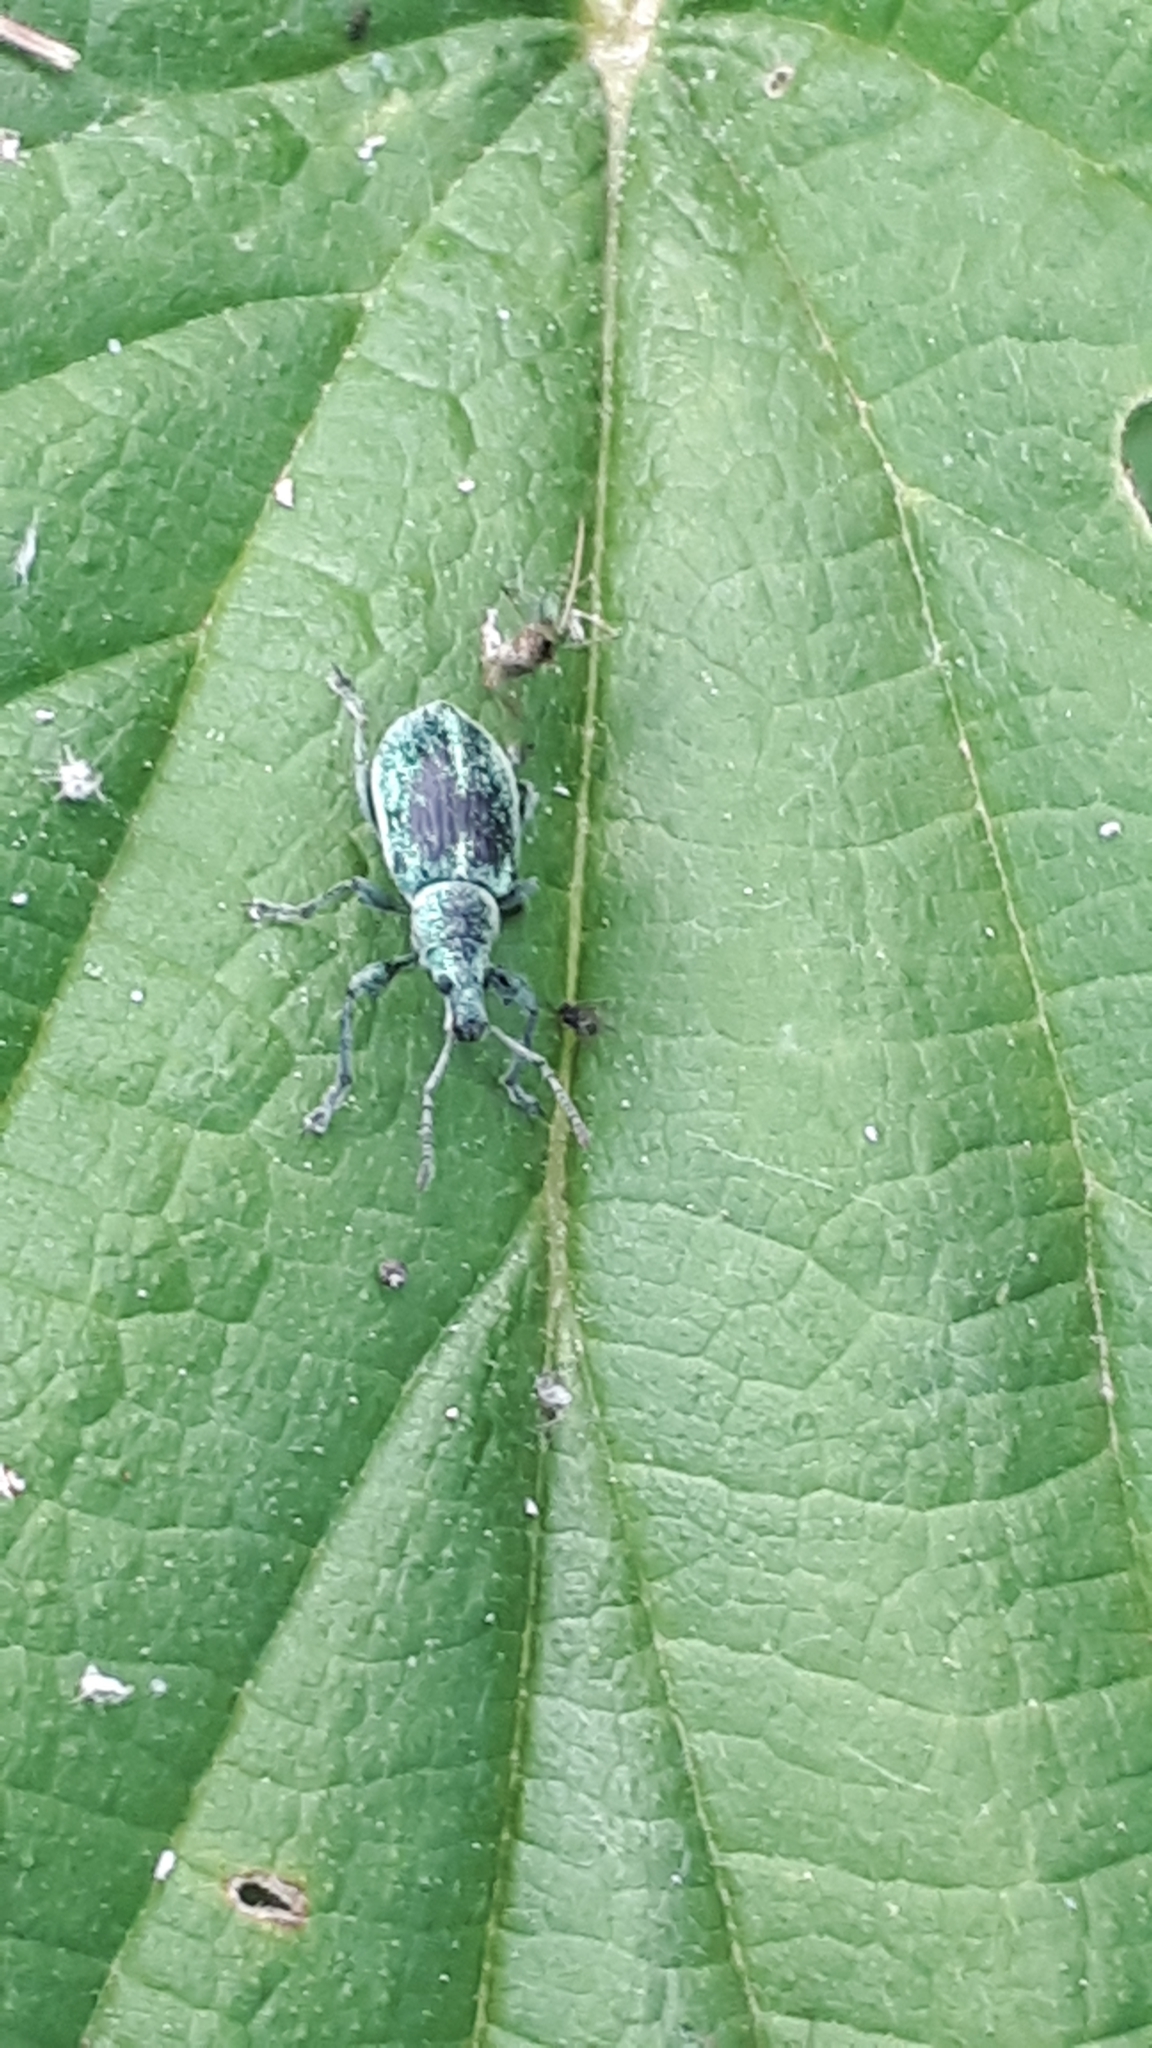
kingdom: Animalia
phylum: Arthropoda
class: Insecta
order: Coleoptera
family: Curculionidae
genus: Phyllobius
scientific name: Phyllobius pomaceus
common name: Green nettle weevil
